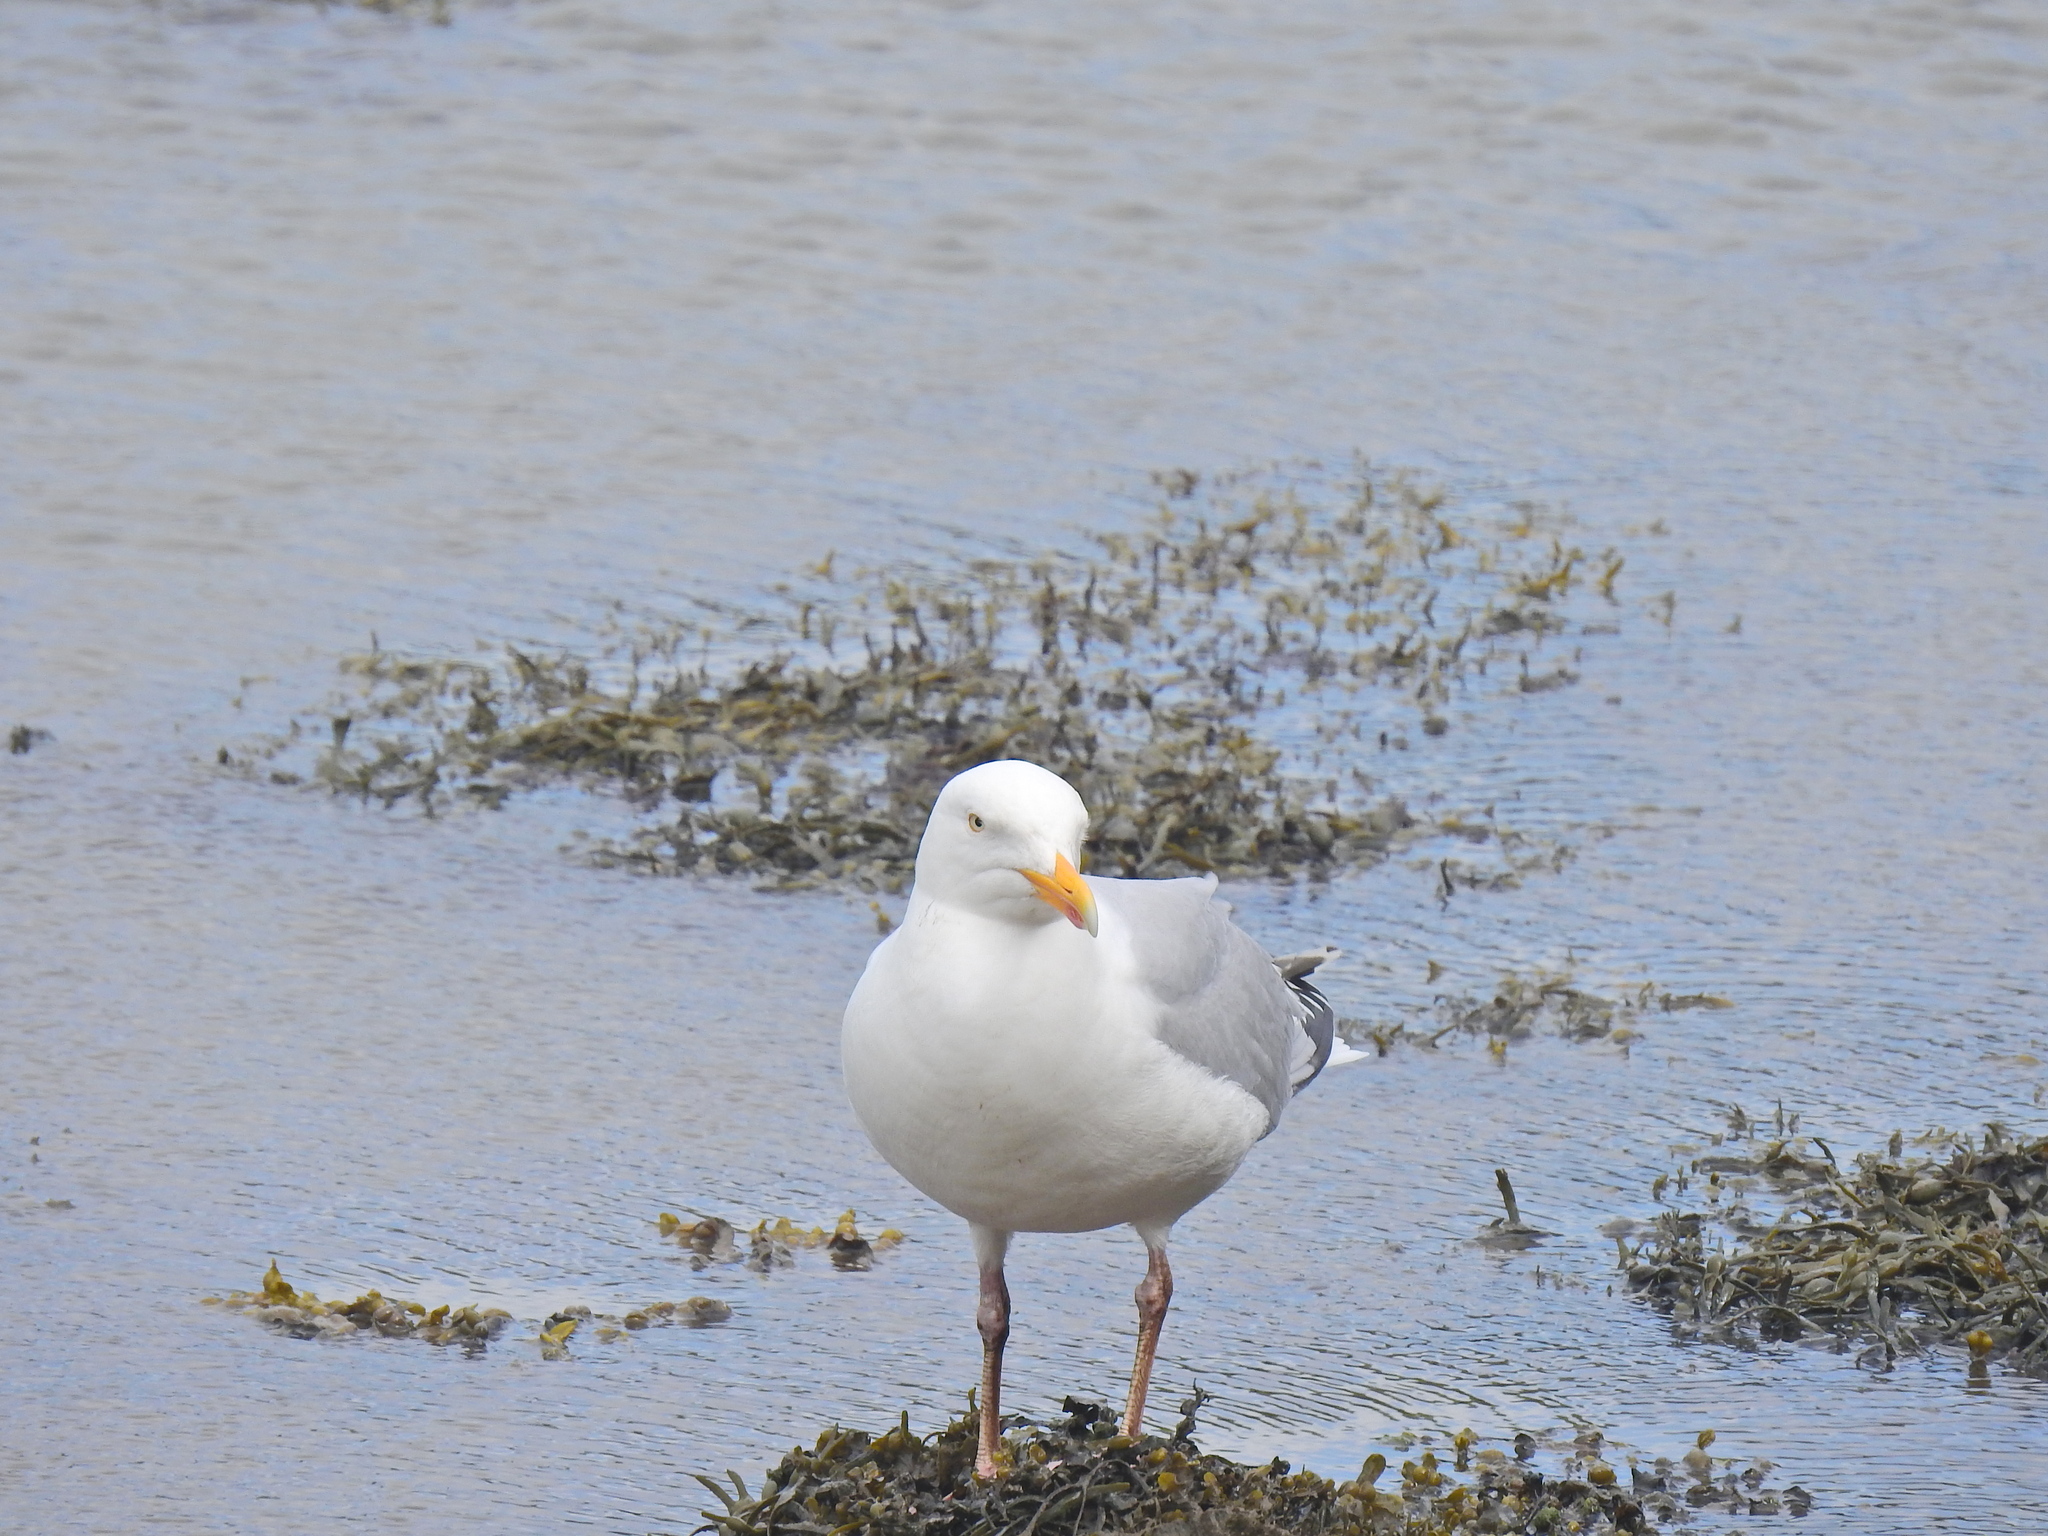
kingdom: Animalia
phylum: Chordata
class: Aves
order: Charadriiformes
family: Laridae
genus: Larus
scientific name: Larus argentatus
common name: Herring gull
